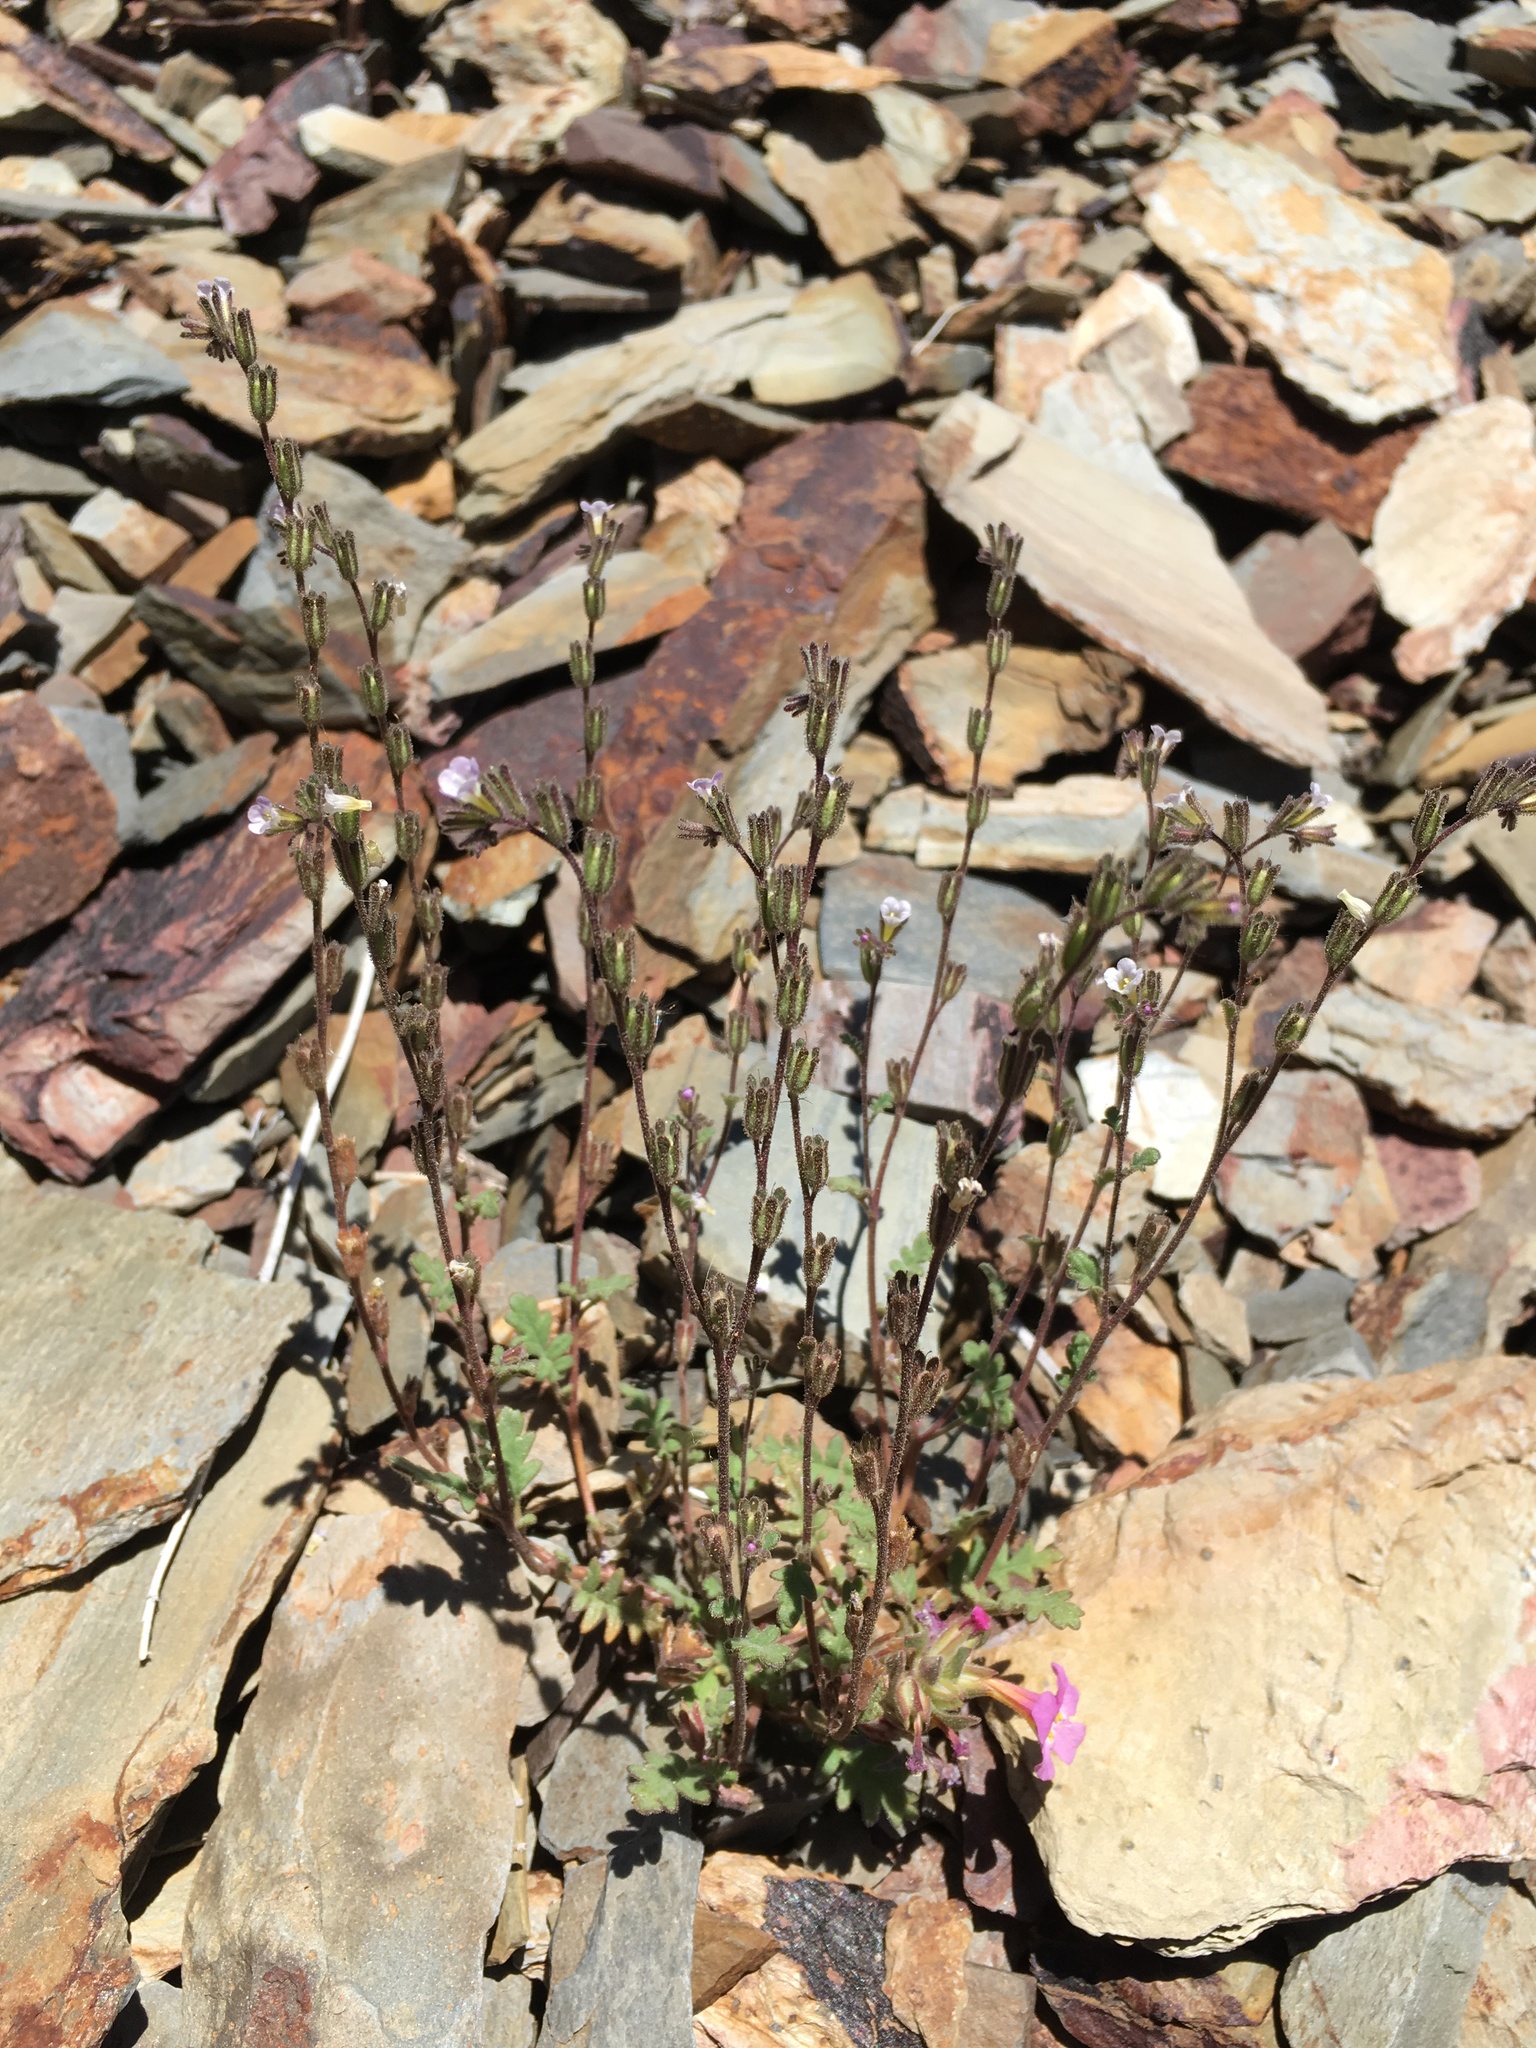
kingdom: Plantae
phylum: Tracheophyta
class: Magnoliopsida
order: Boraginales
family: Hydrophyllaceae
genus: Phacelia
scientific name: Phacelia affinis
